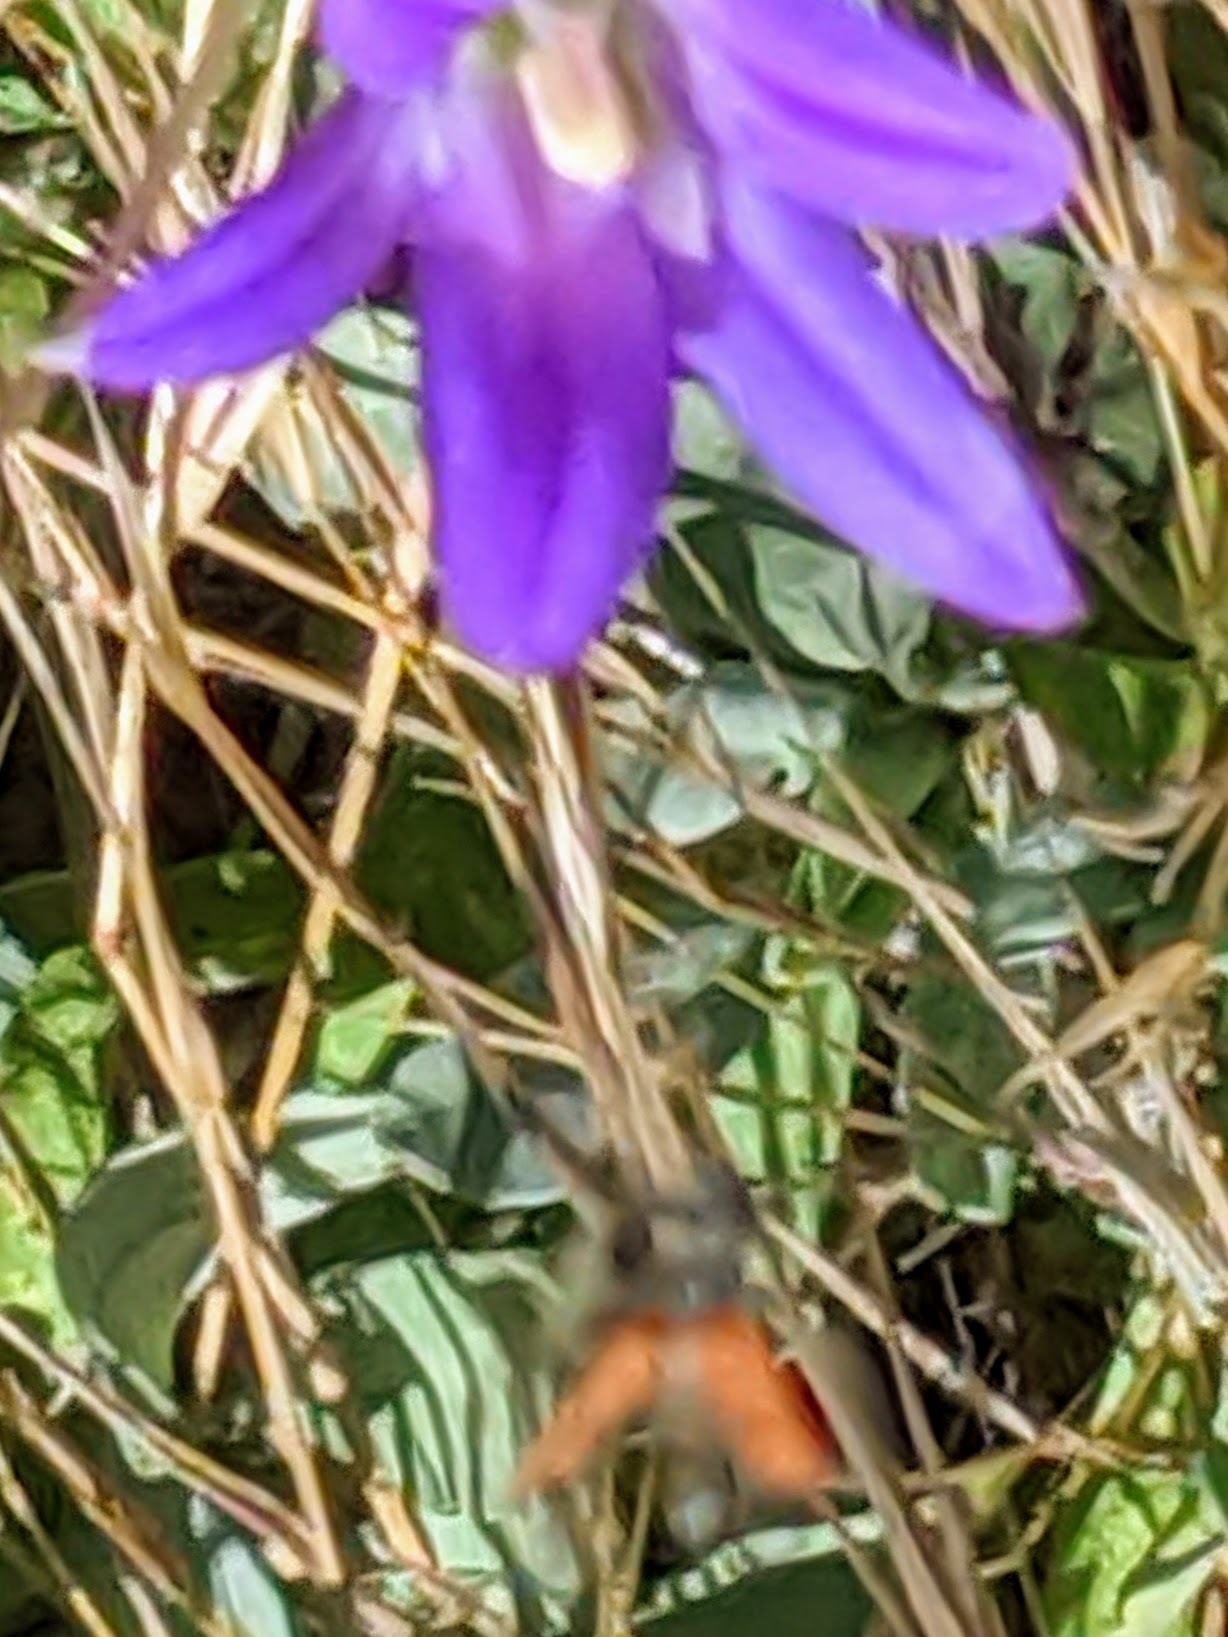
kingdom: Animalia
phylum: Arthropoda
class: Insecta
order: Coleoptera
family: Cerambycidae
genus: Anastrangalia
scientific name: Anastrangalia laetifica
